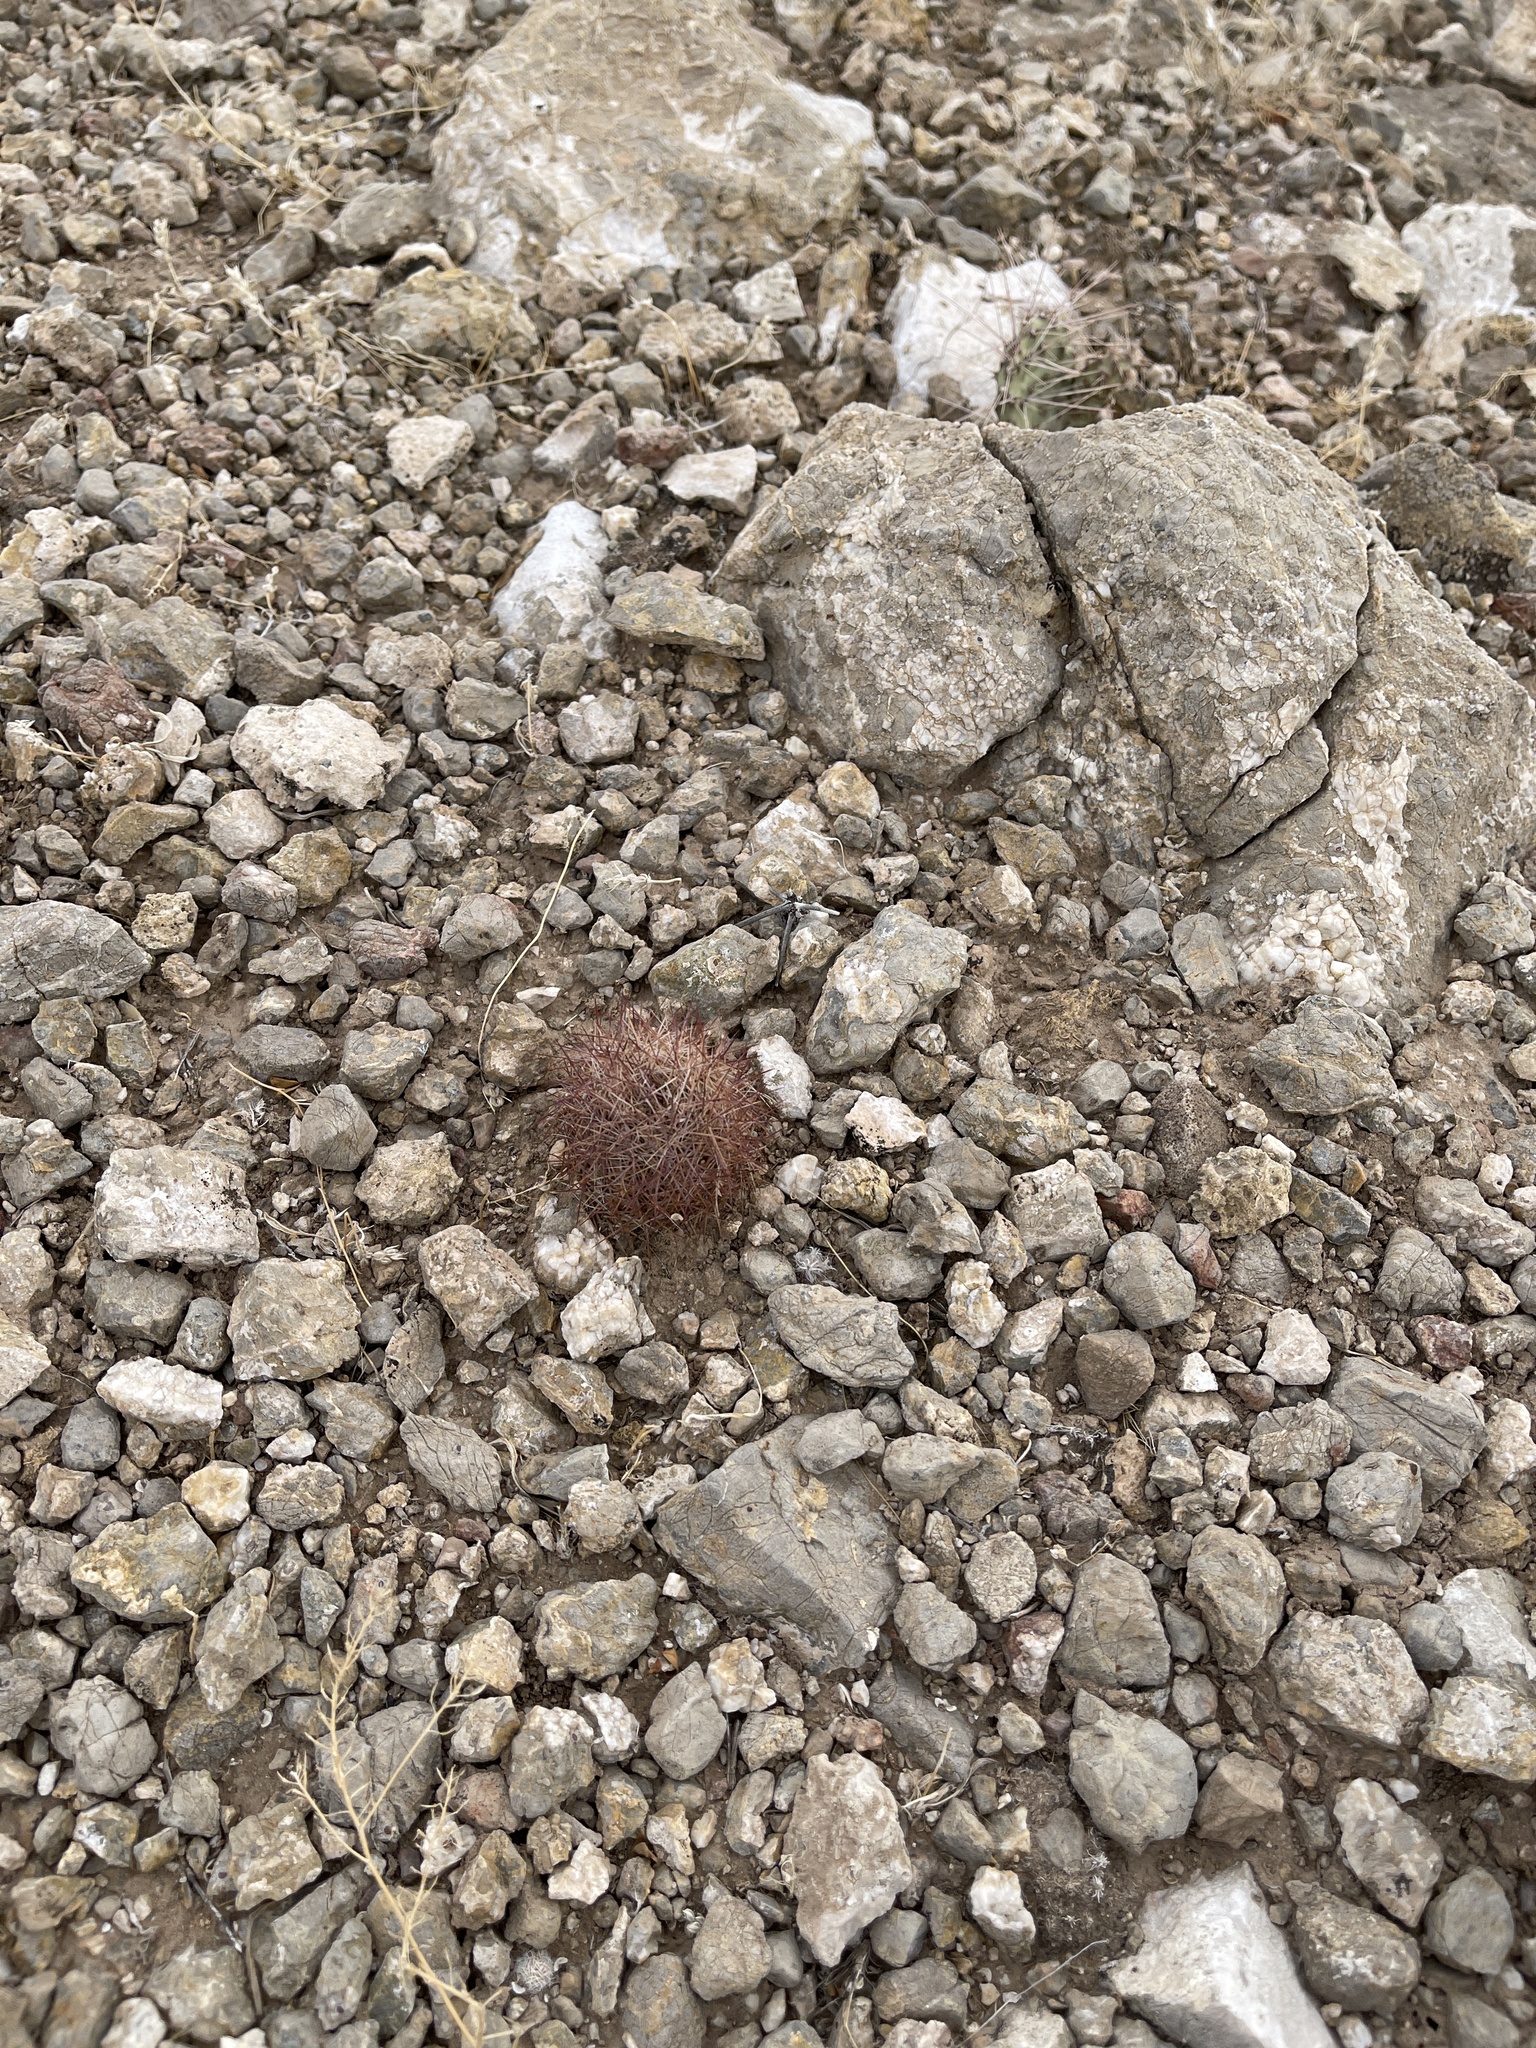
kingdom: Plantae
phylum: Tracheophyta
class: Magnoliopsida
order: Caryophyllales
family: Cactaceae
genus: Sclerocactus
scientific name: Sclerocactus intertextus
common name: White fish-hook cactus
